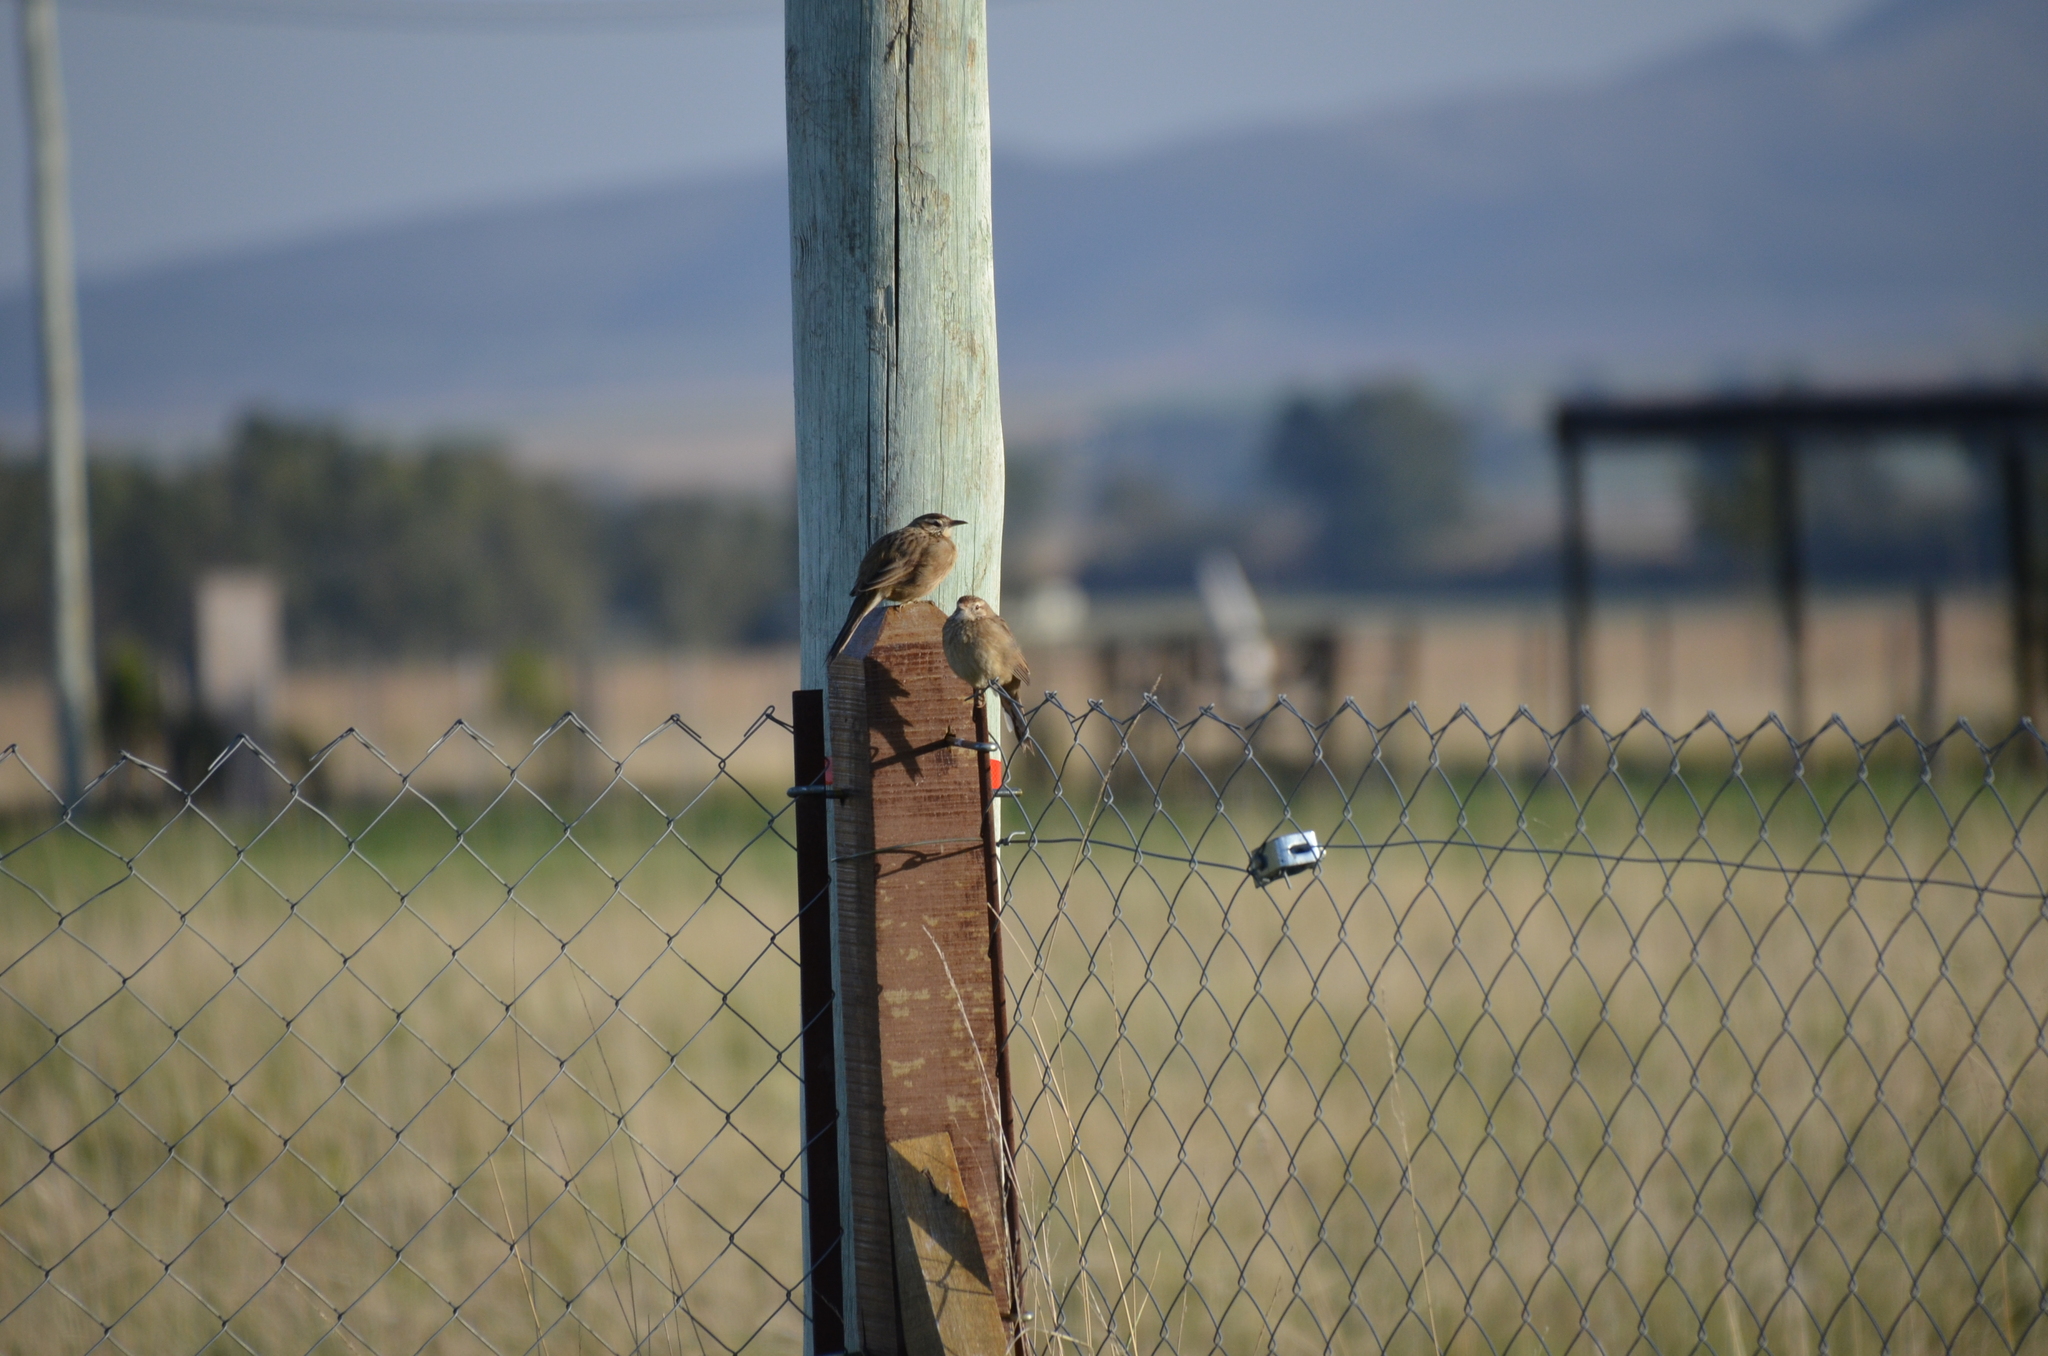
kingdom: Animalia
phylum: Chordata
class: Aves
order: Passeriformes
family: Furnariidae
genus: Anumbius
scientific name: Anumbius annumbi
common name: Firewood-gatherer
